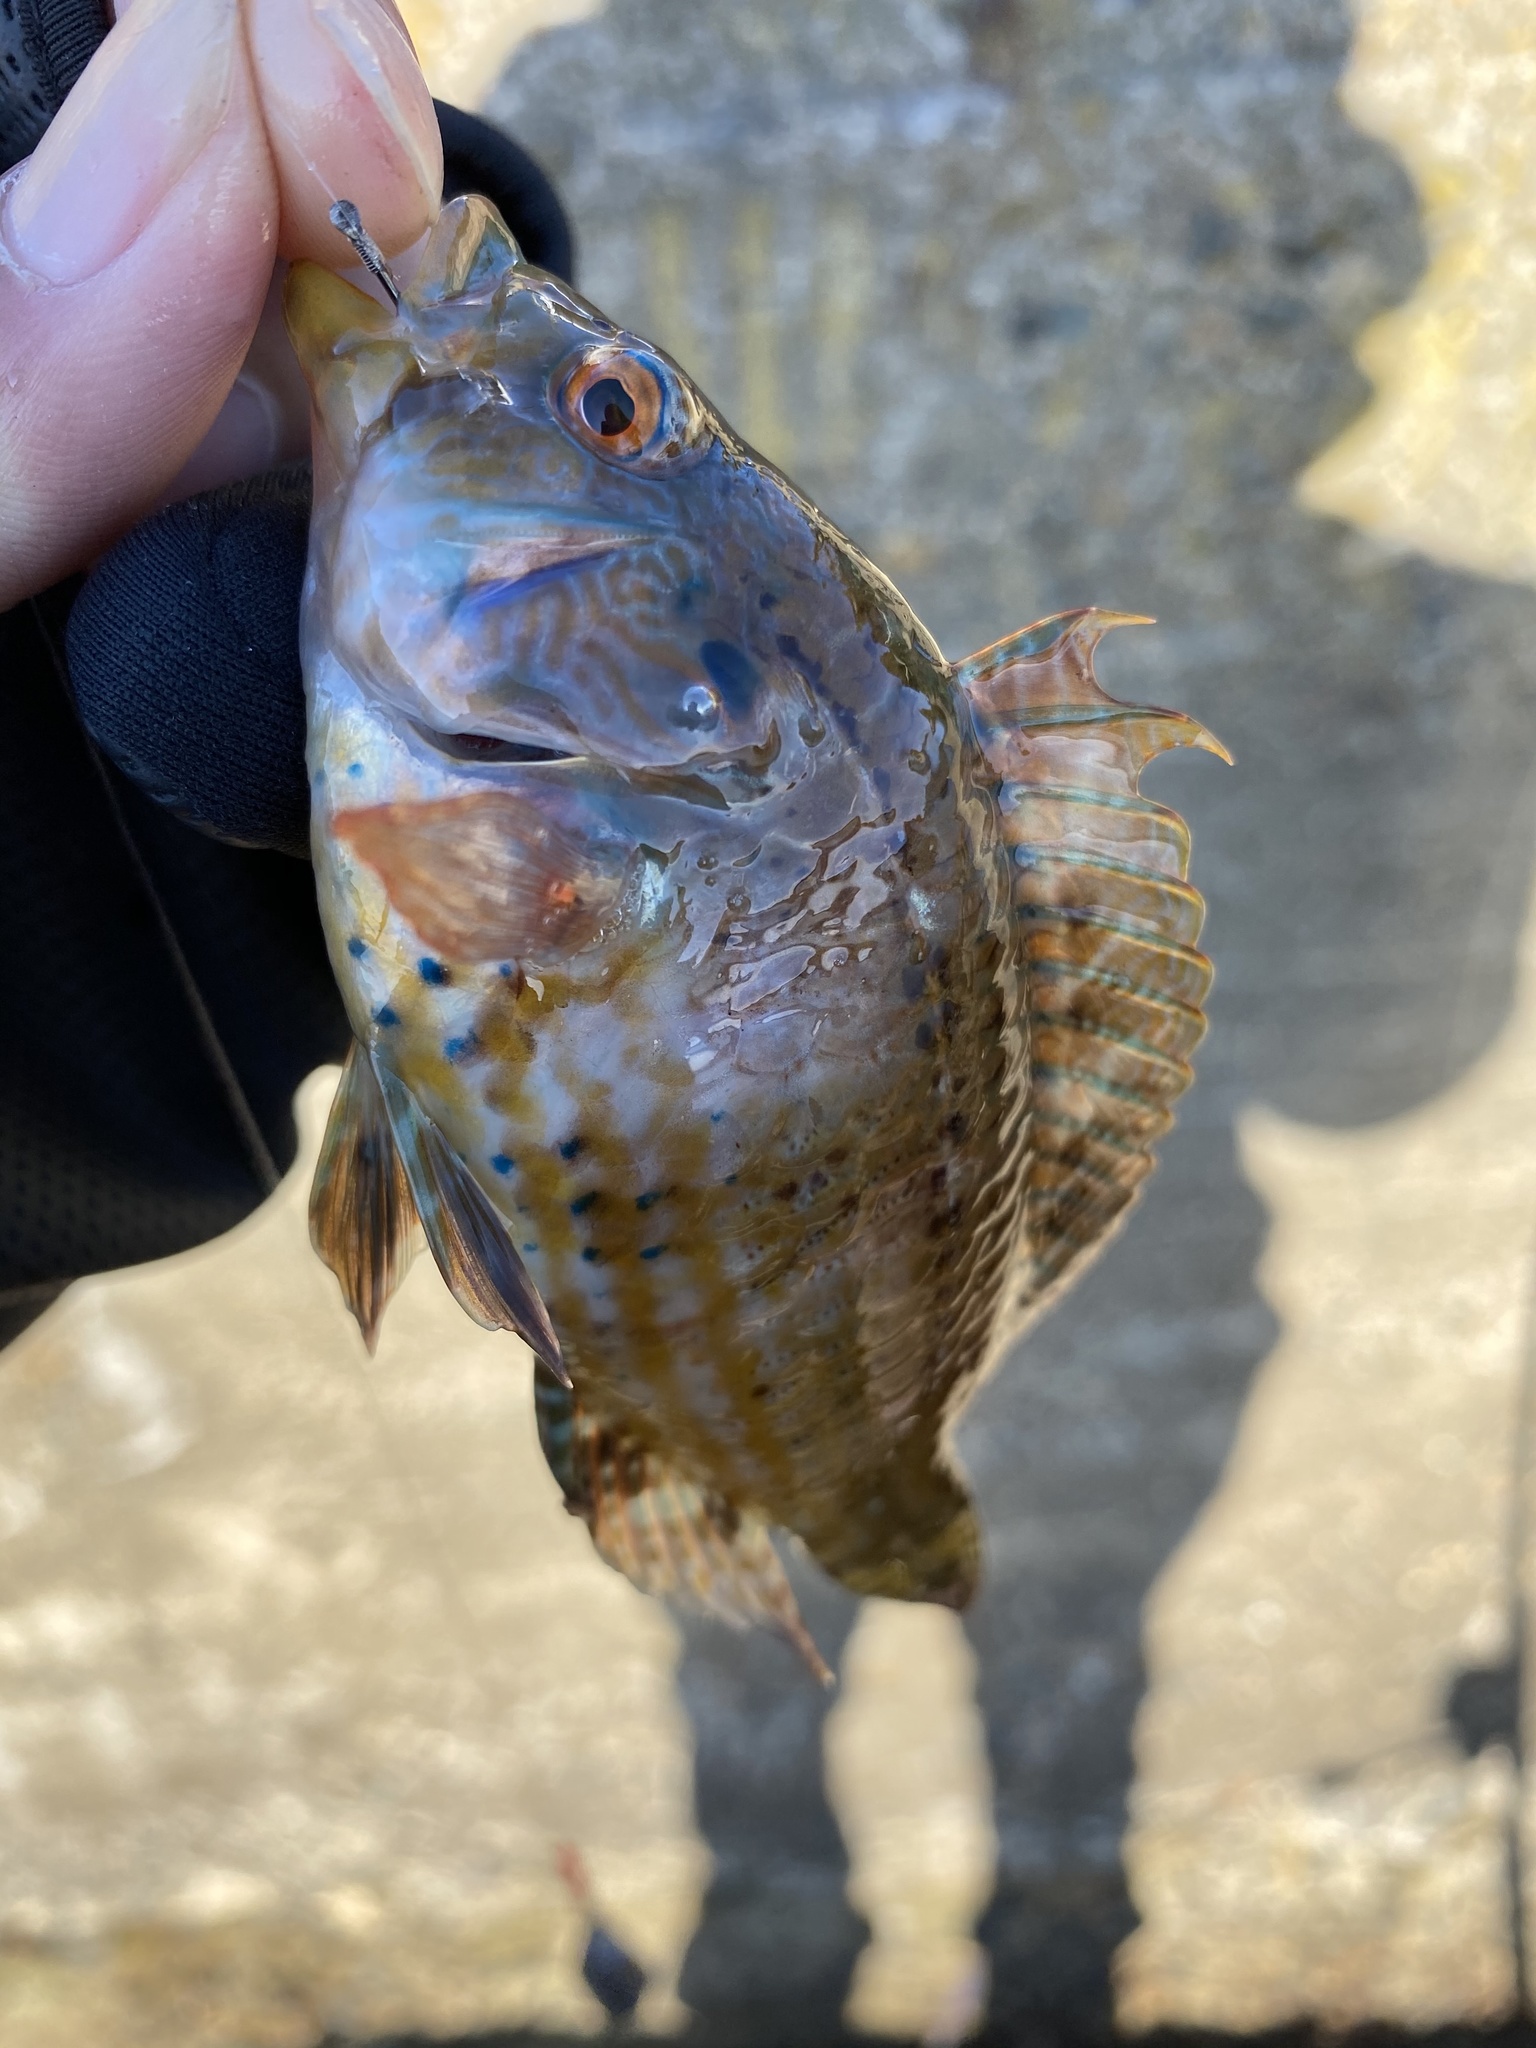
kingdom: Animalia
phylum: Chordata
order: Perciformes
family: Labridae
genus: Pteragogus
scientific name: Pteragogus aurigarius
